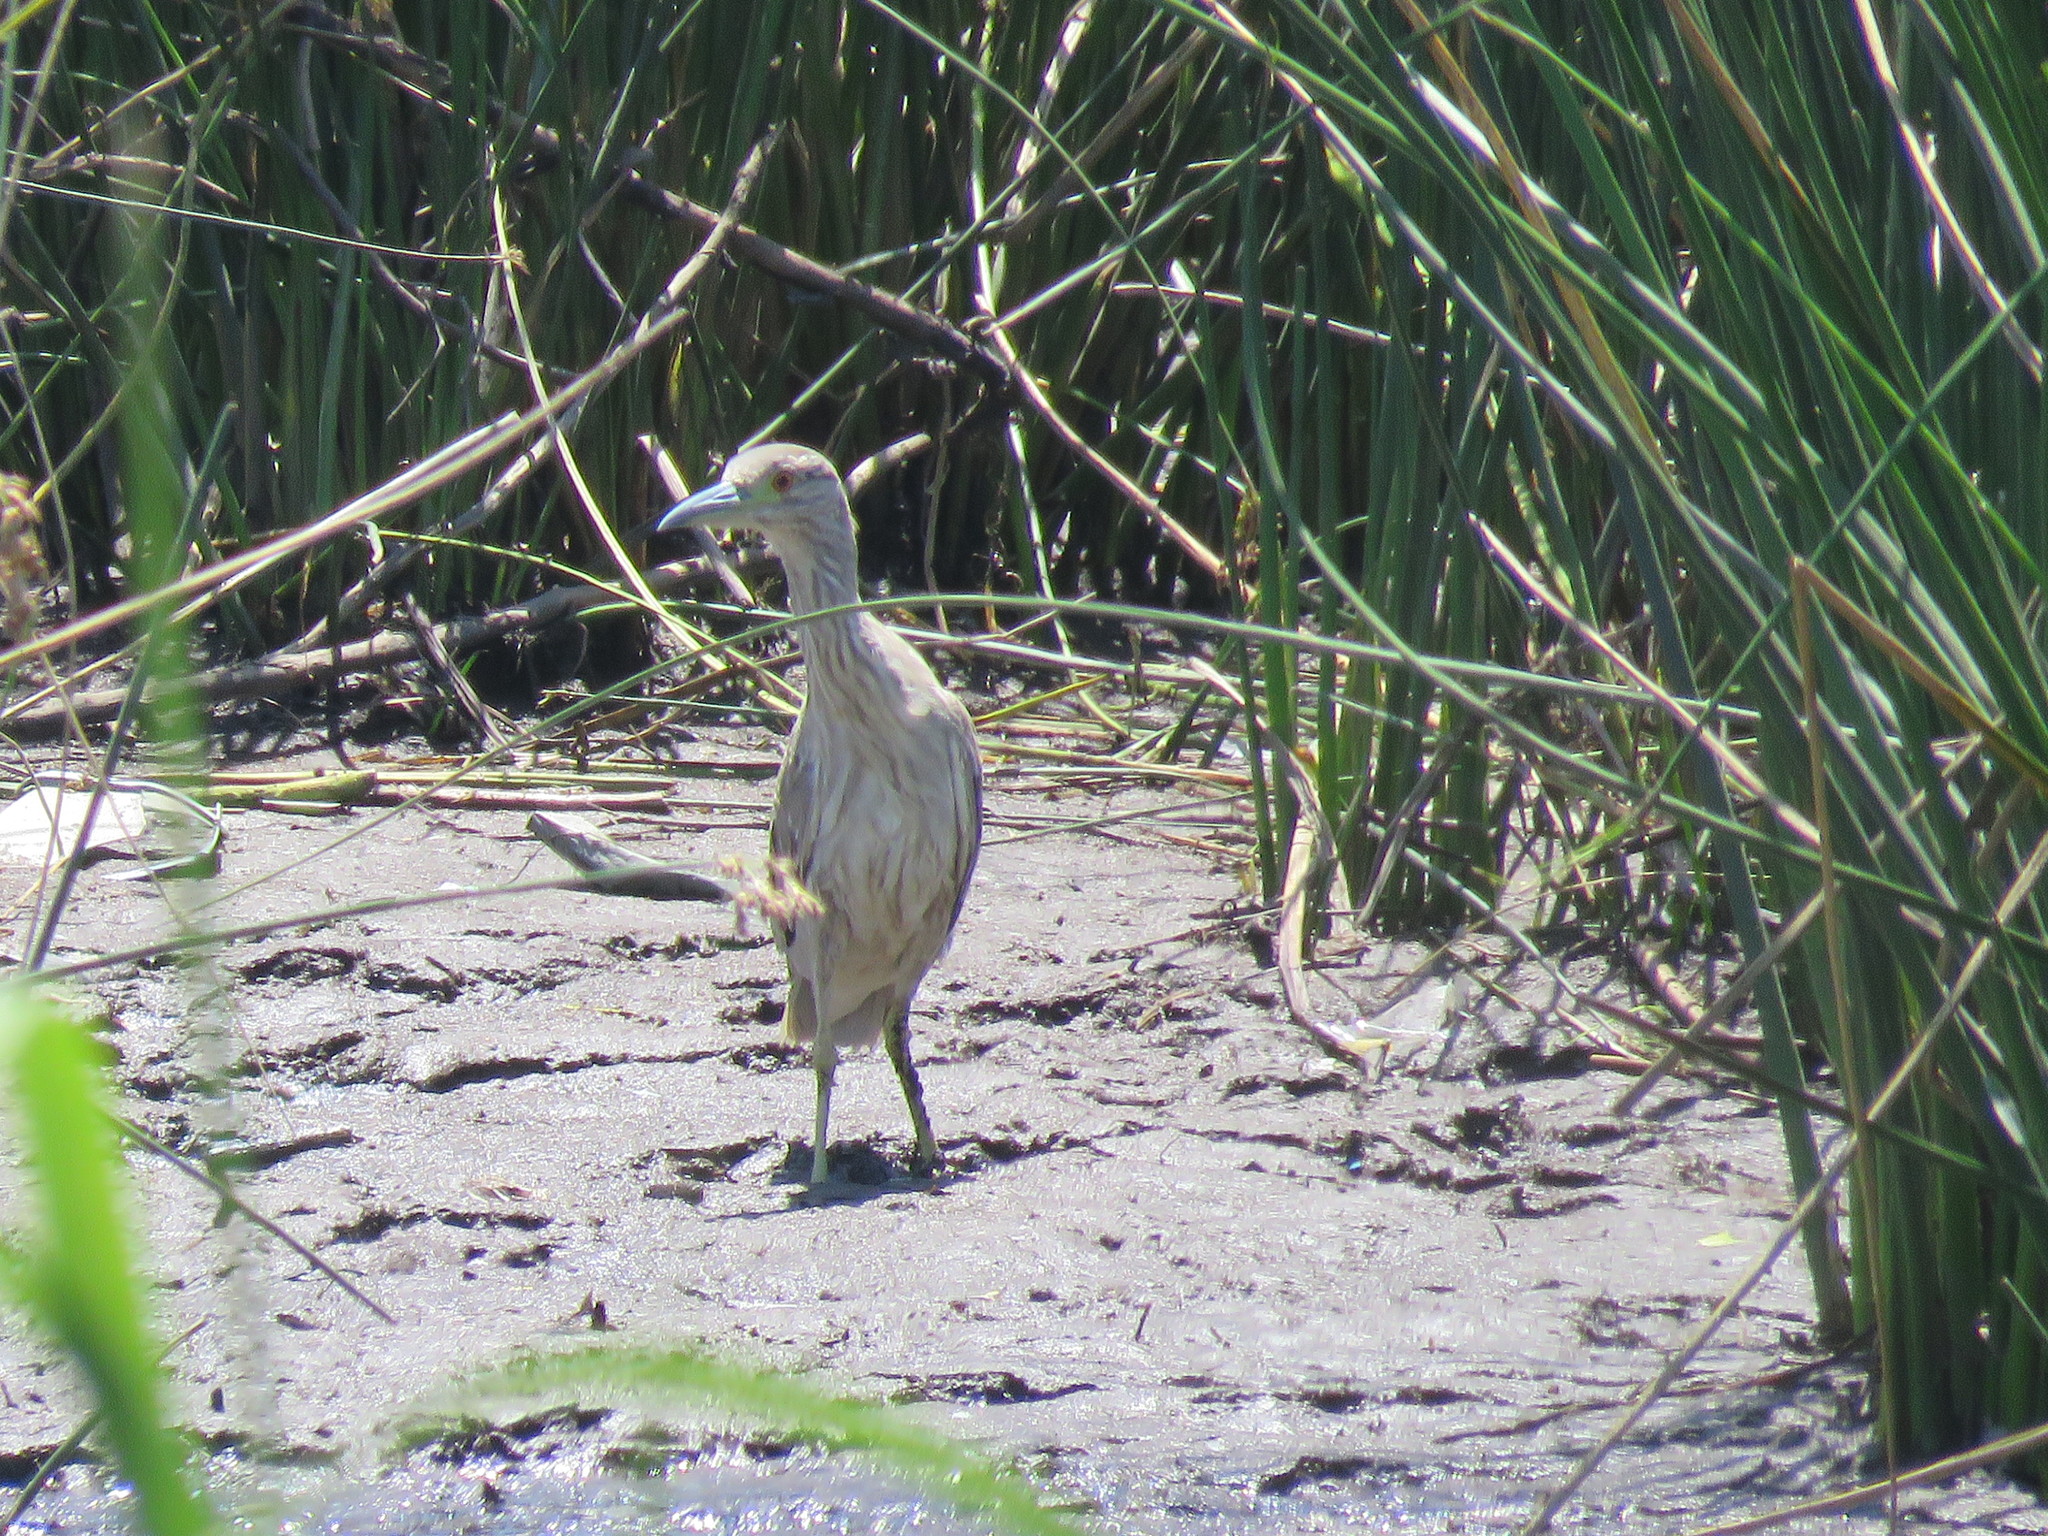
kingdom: Animalia
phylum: Chordata
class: Aves
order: Pelecaniformes
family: Ardeidae
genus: Nycticorax
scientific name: Nycticorax nycticorax
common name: Black-crowned night heron
